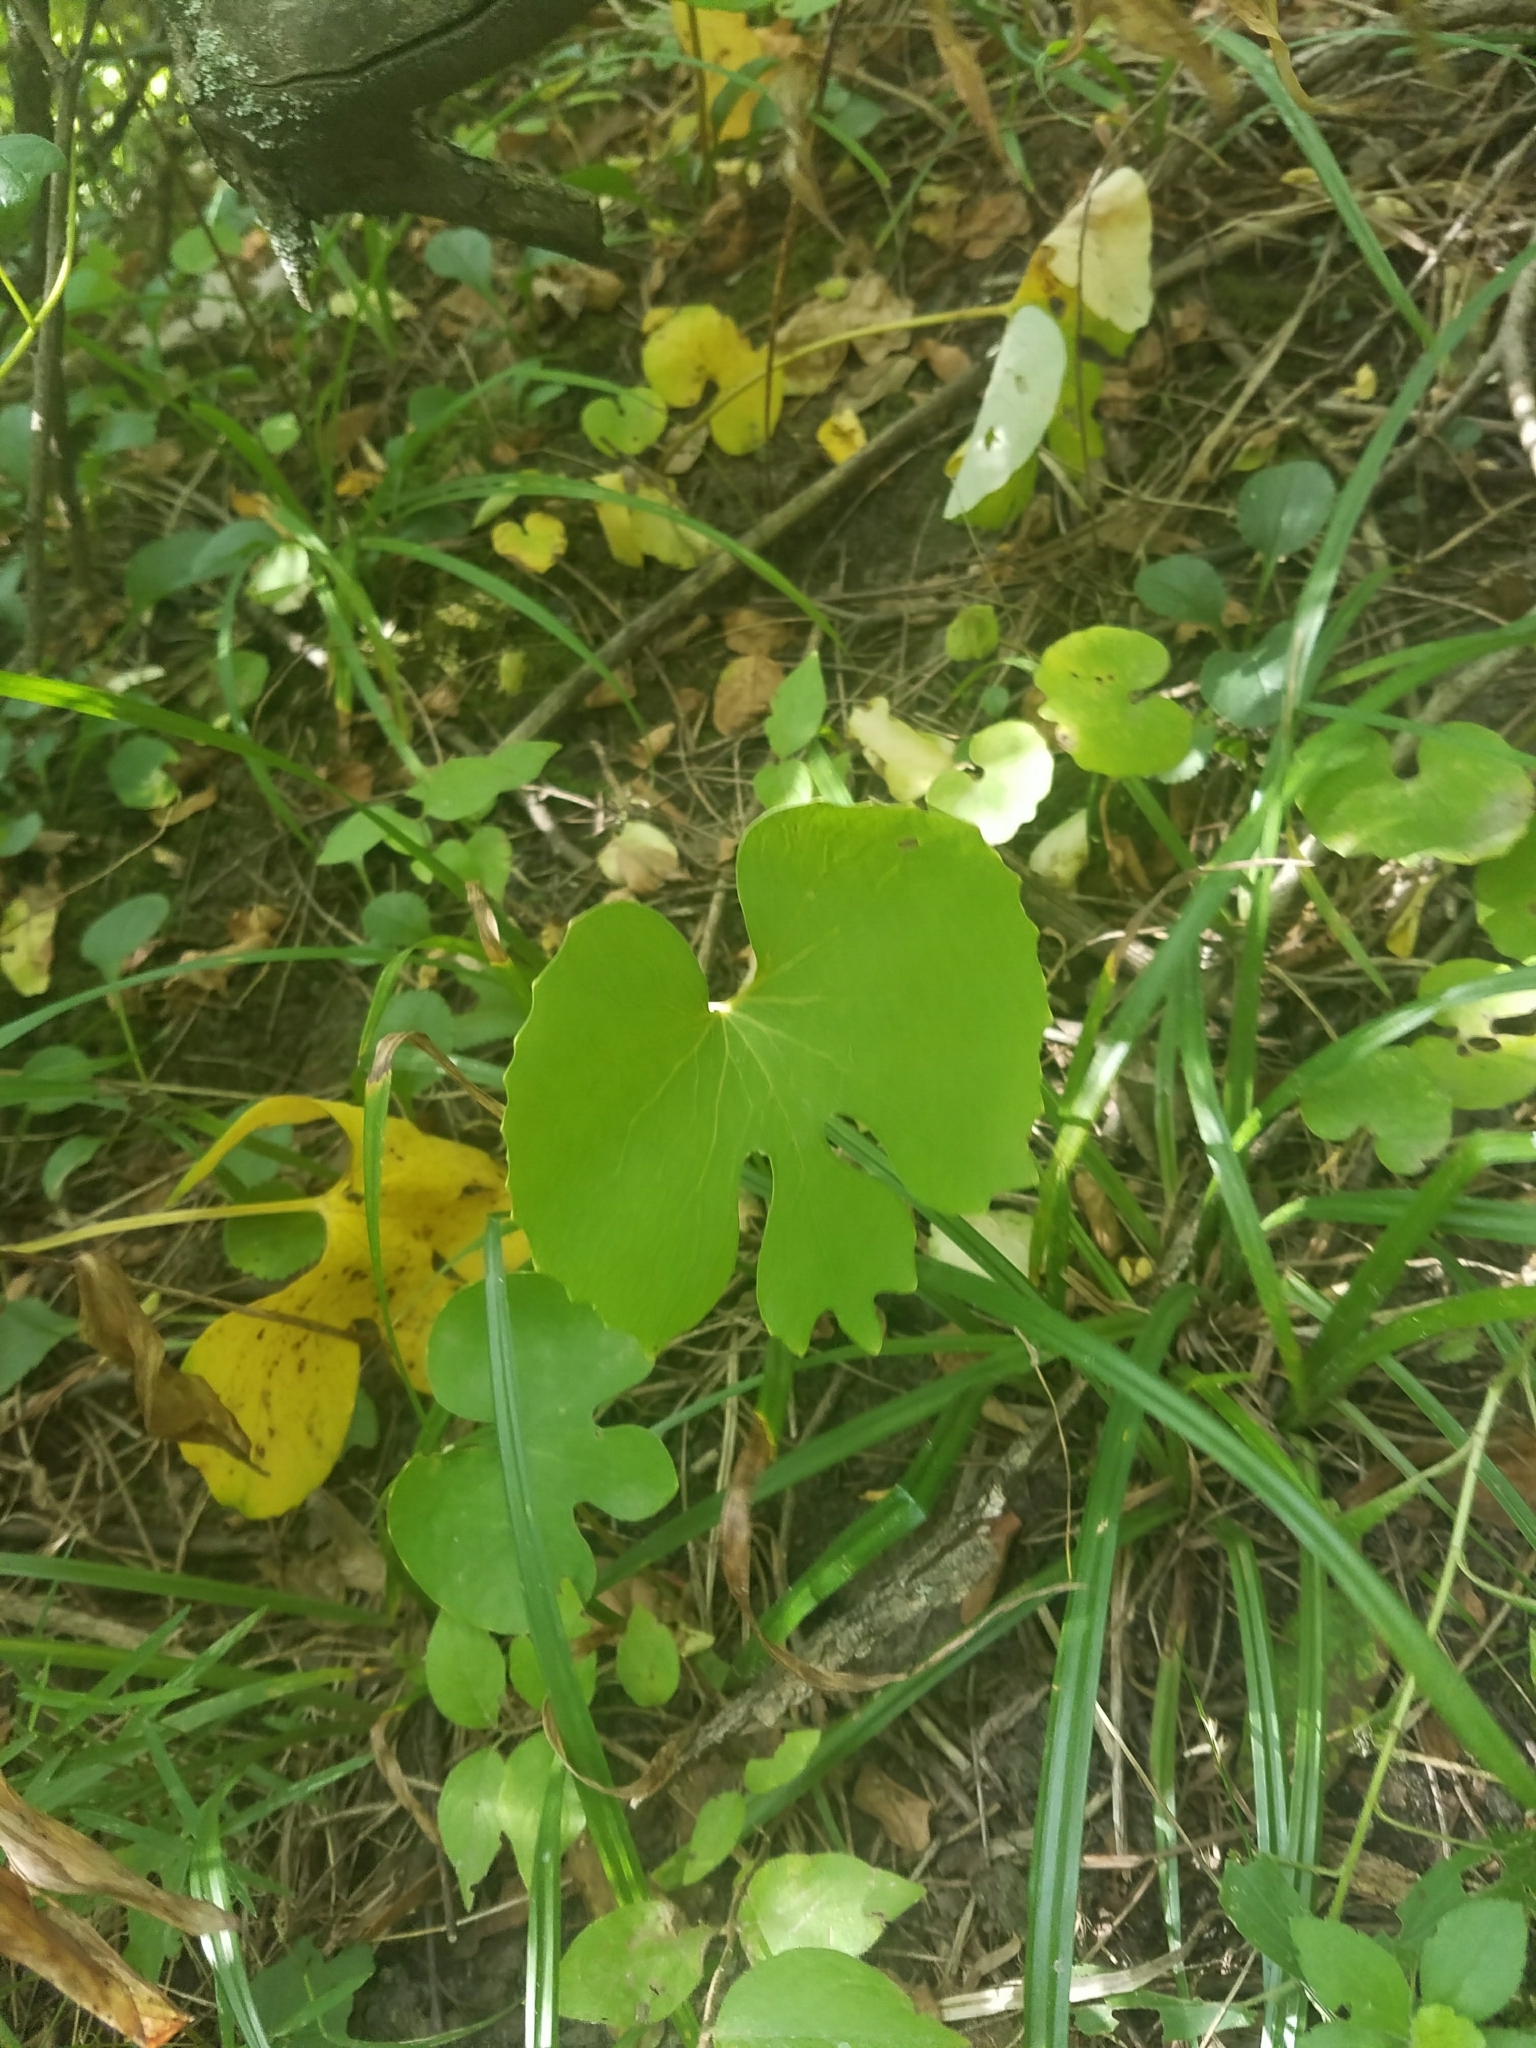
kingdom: Plantae
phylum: Tracheophyta
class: Magnoliopsida
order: Ranunculales
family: Papaveraceae
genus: Sanguinaria
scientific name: Sanguinaria canadensis
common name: Bloodroot
